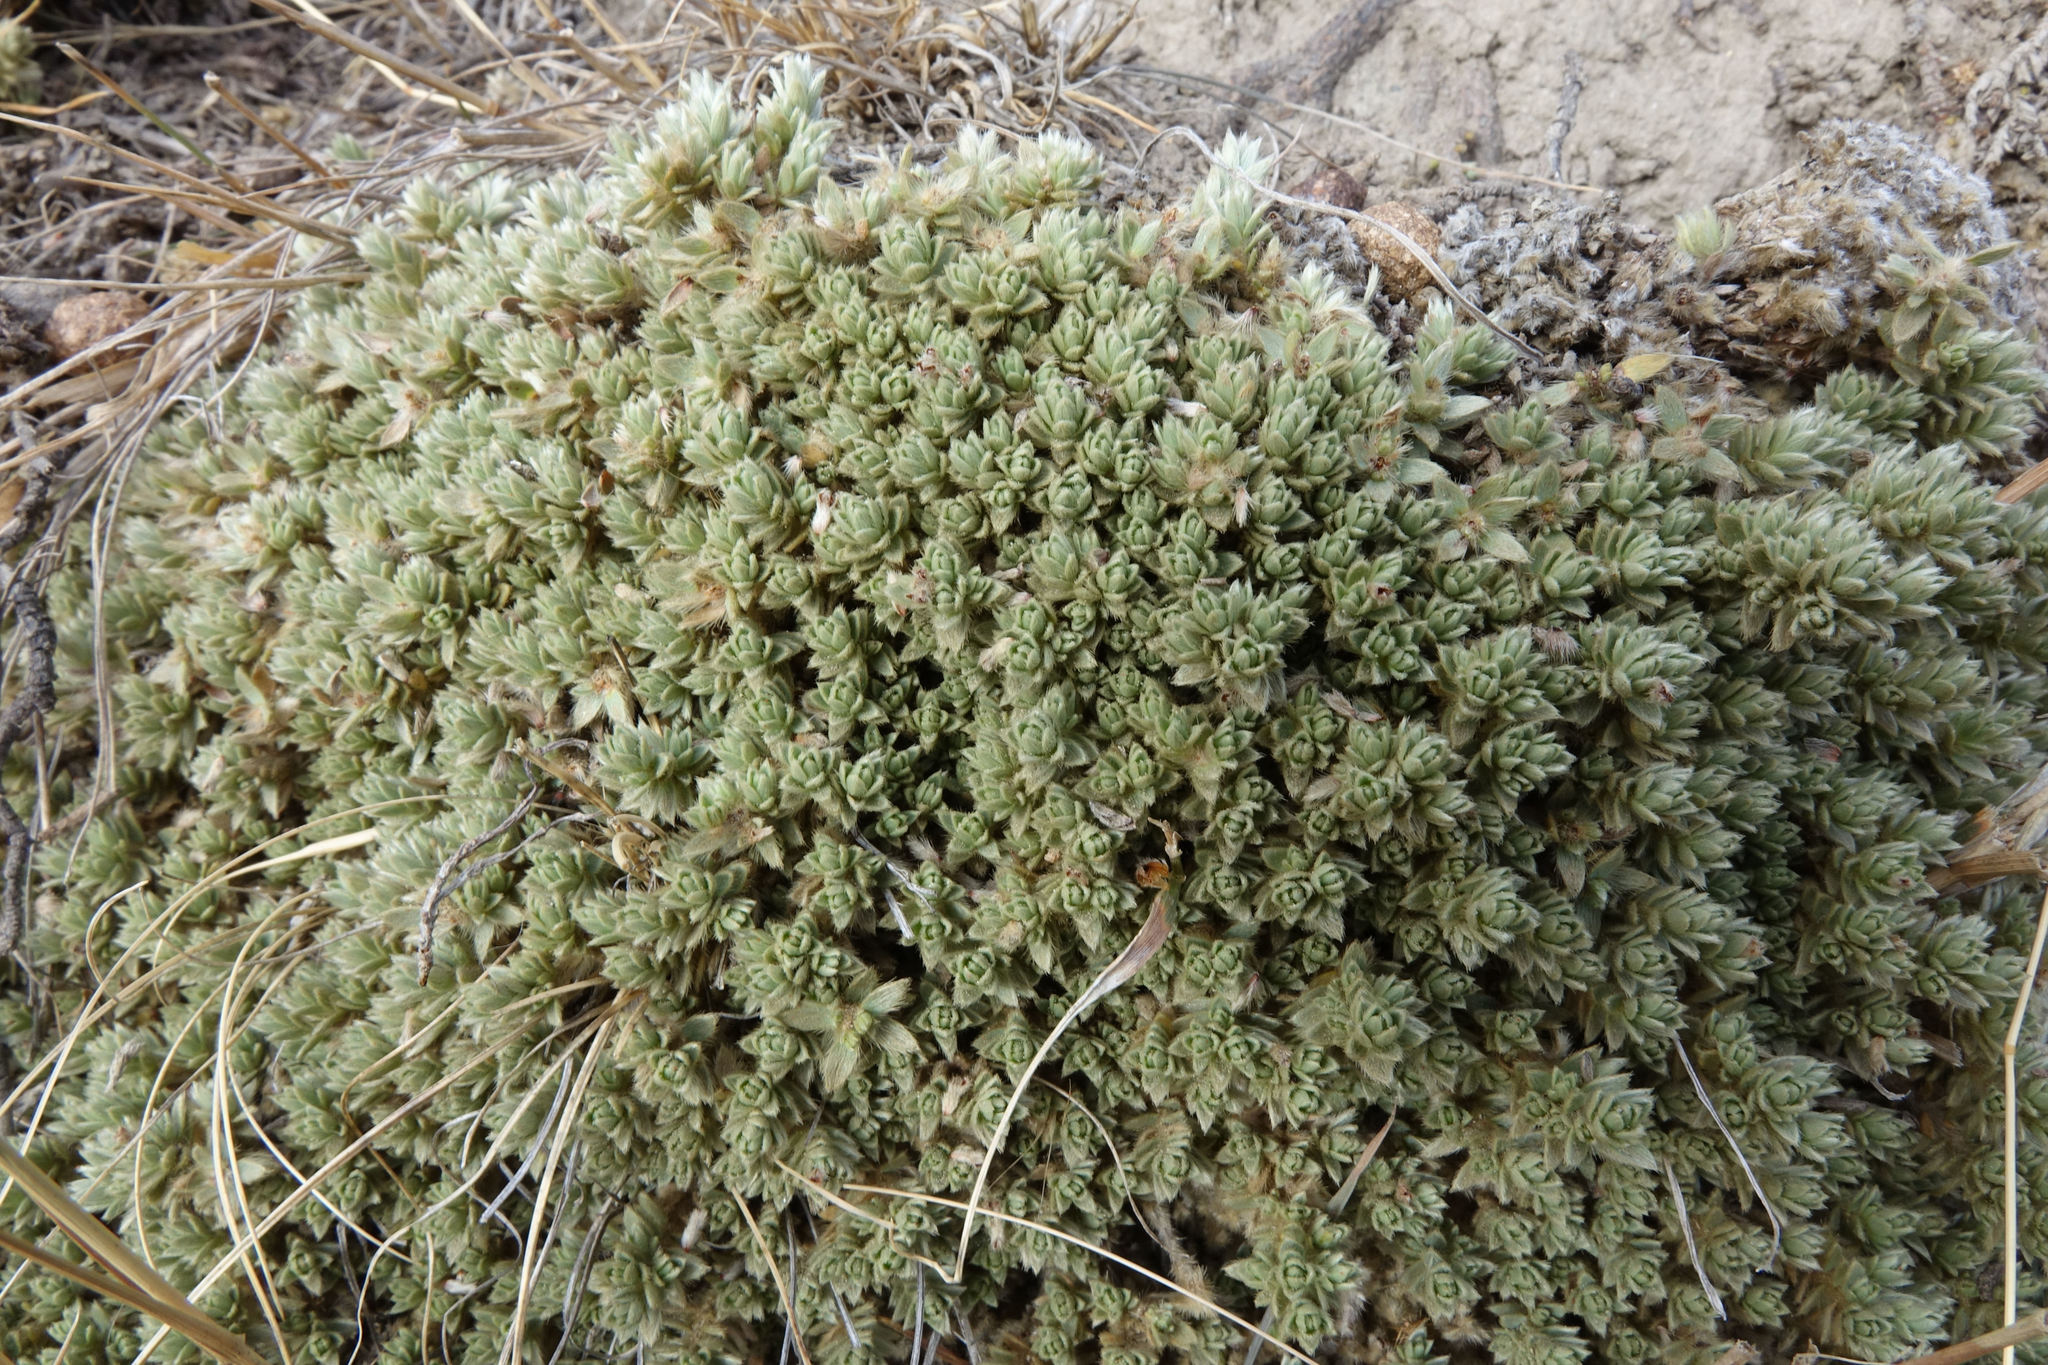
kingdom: Plantae
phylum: Tracheophyta
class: Magnoliopsida
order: Malvales
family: Thymelaeaceae
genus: Pimelea
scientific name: Pimelea sericeovillosa
